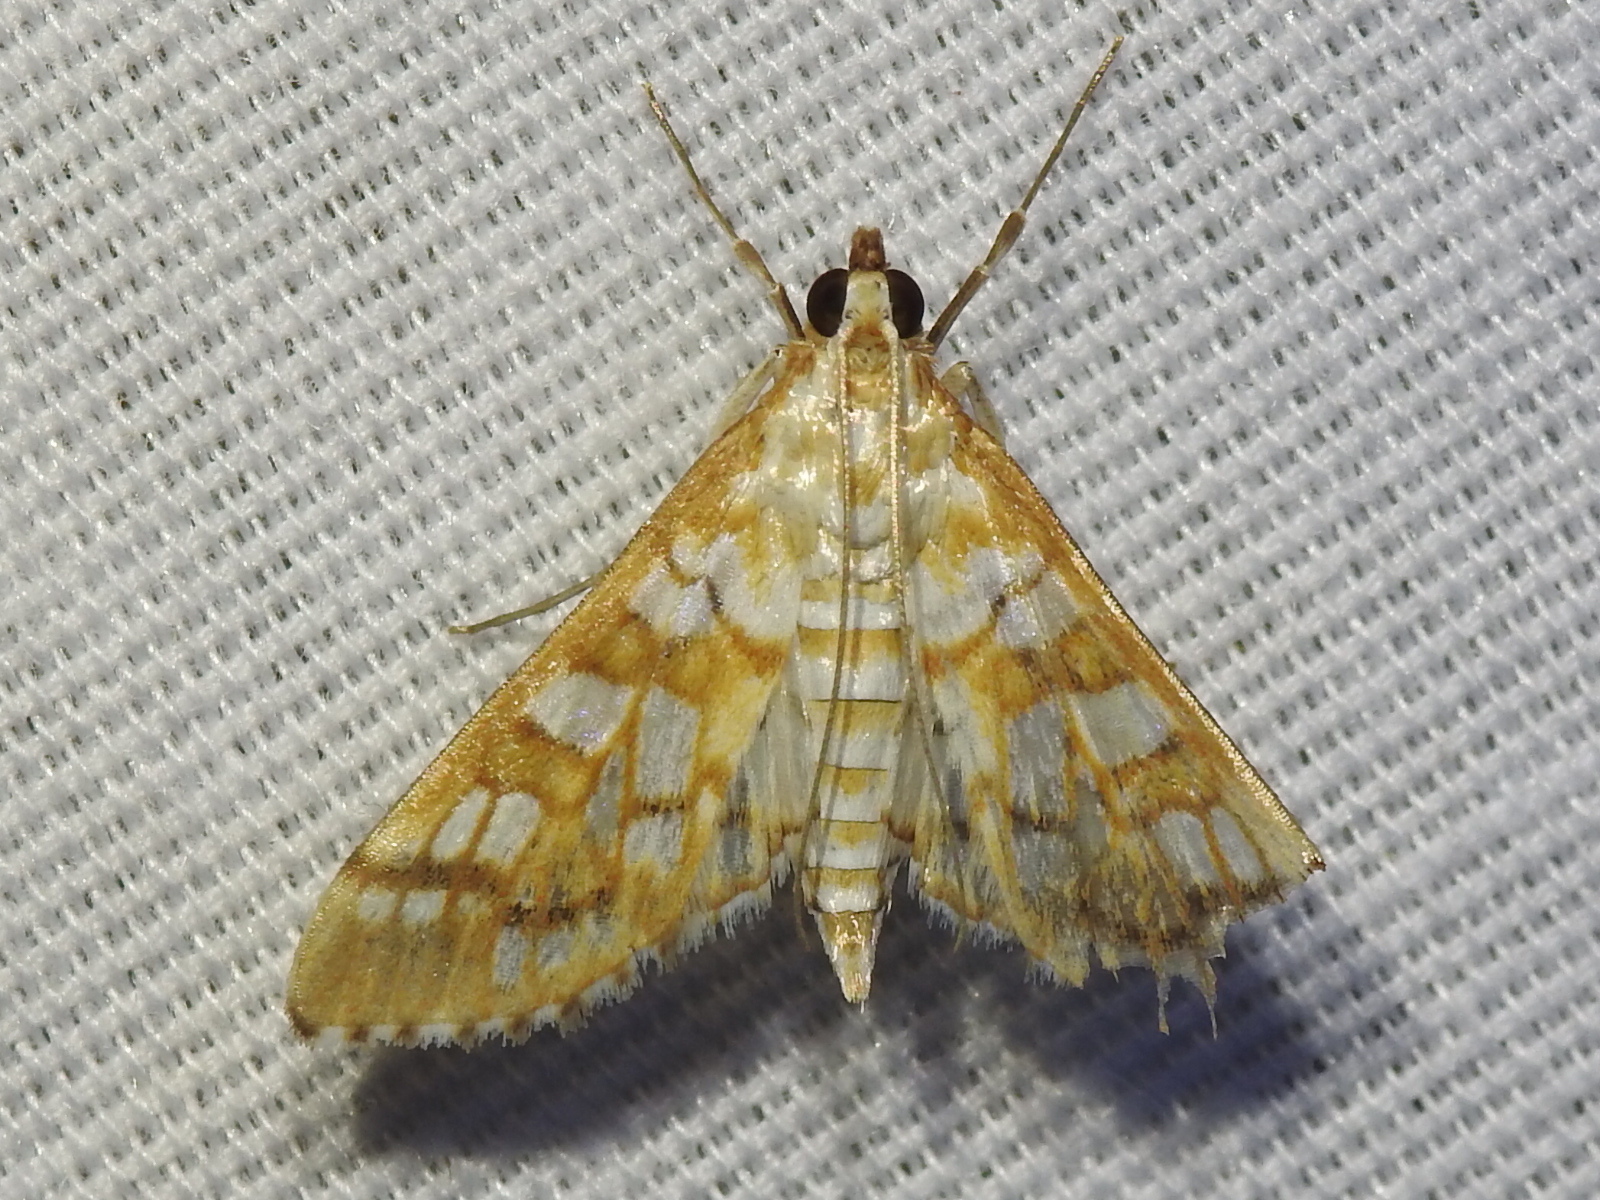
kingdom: Animalia
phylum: Arthropoda
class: Insecta
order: Lepidoptera
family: Crambidae
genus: Epipagis
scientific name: Epipagis fenestralis
